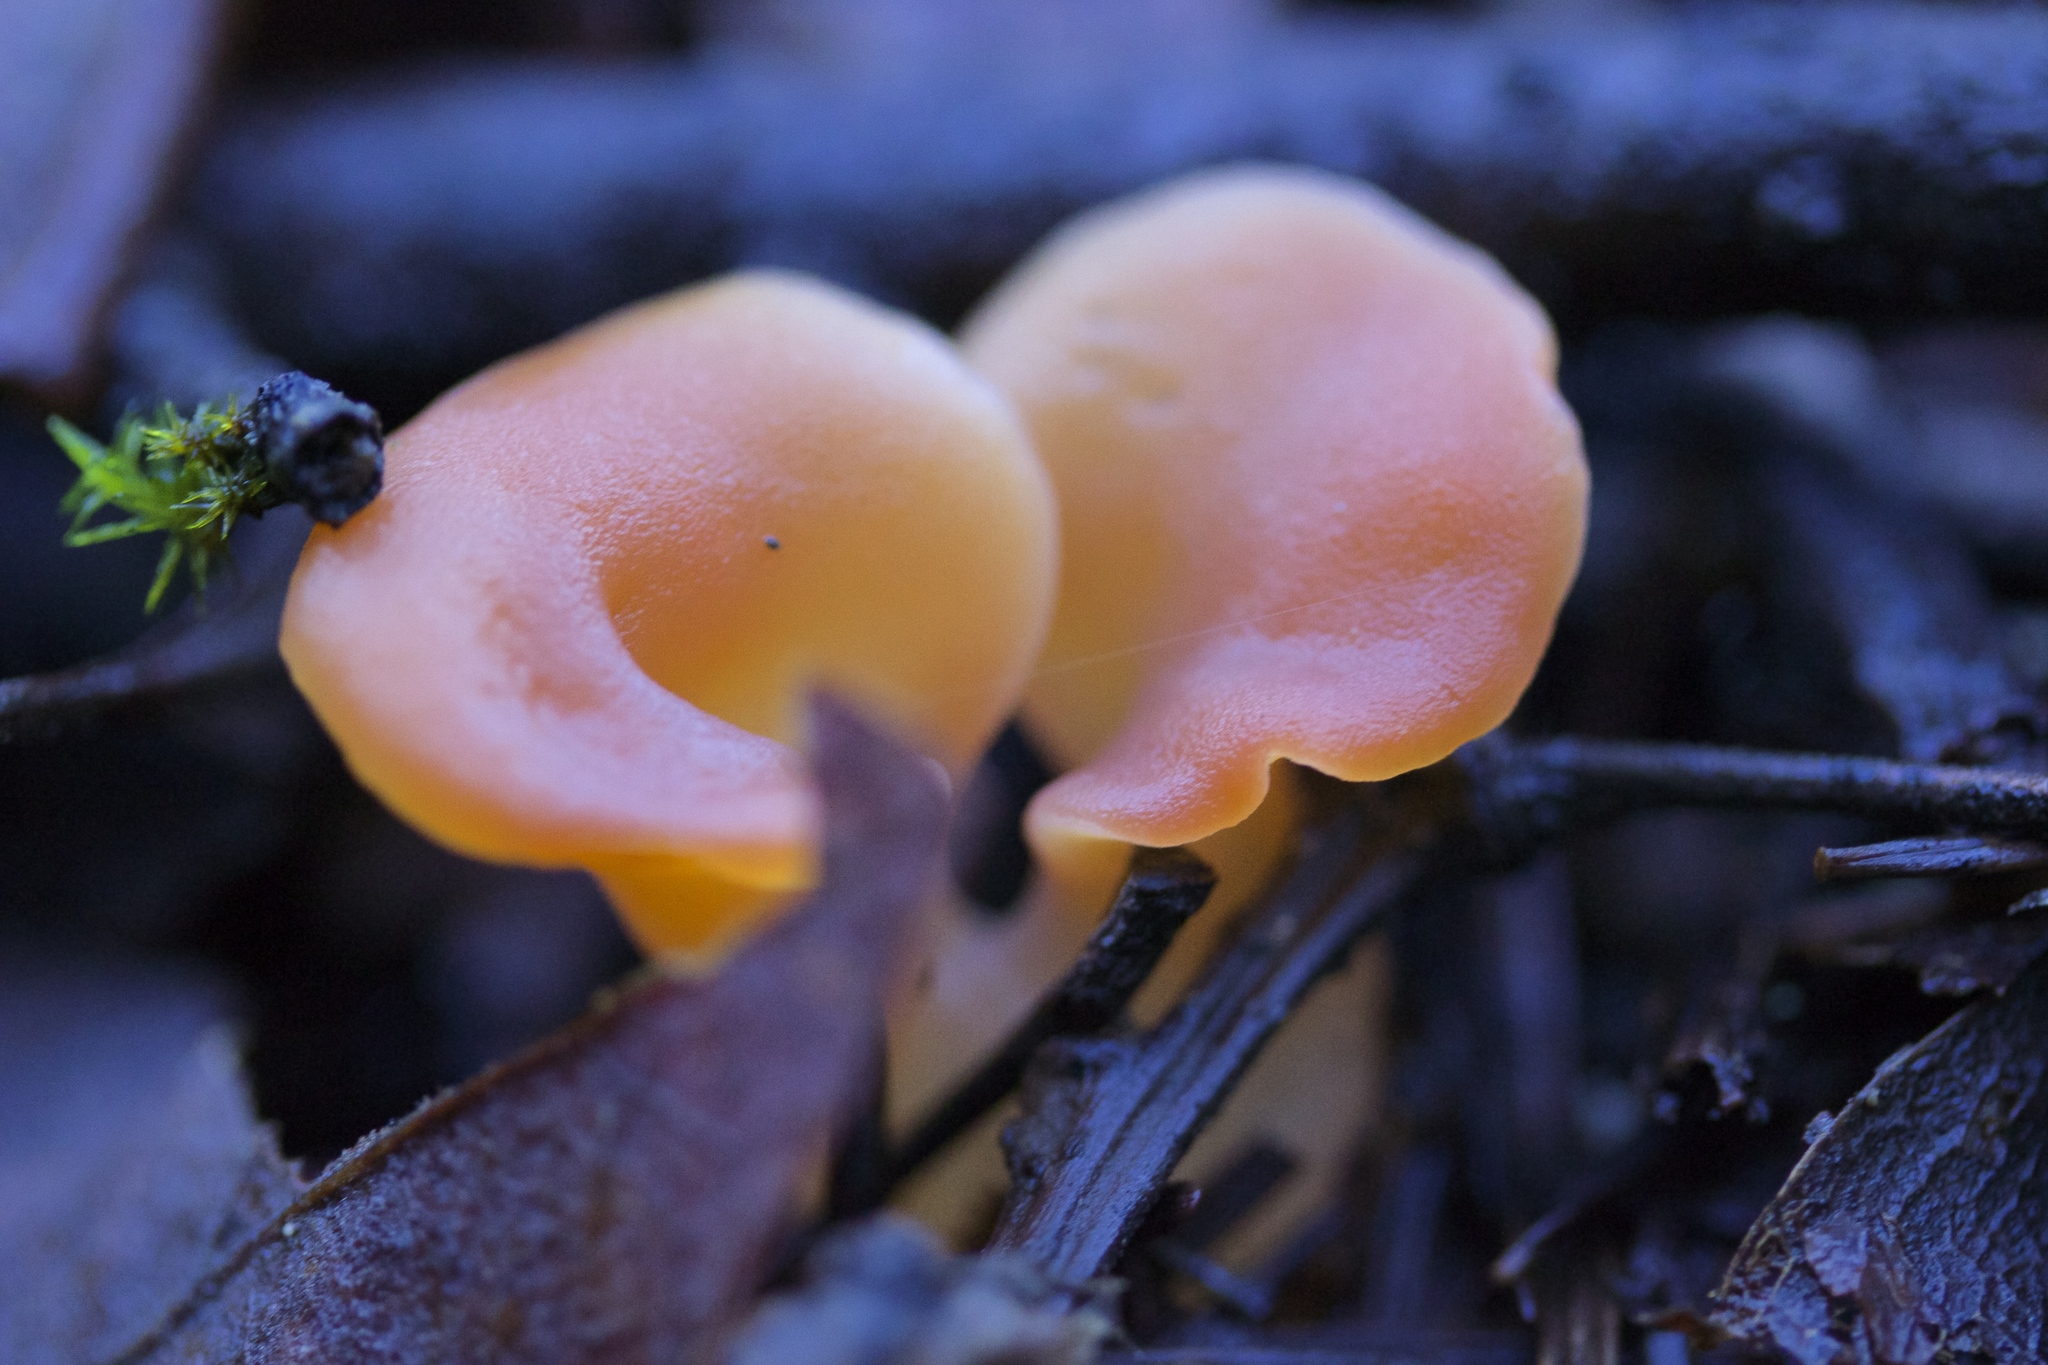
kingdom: Fungi
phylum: Basidiomycota
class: Agaricomycetes
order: Auriculariales
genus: Guepinia
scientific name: Guepinia helvelloides
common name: Salmon salad
